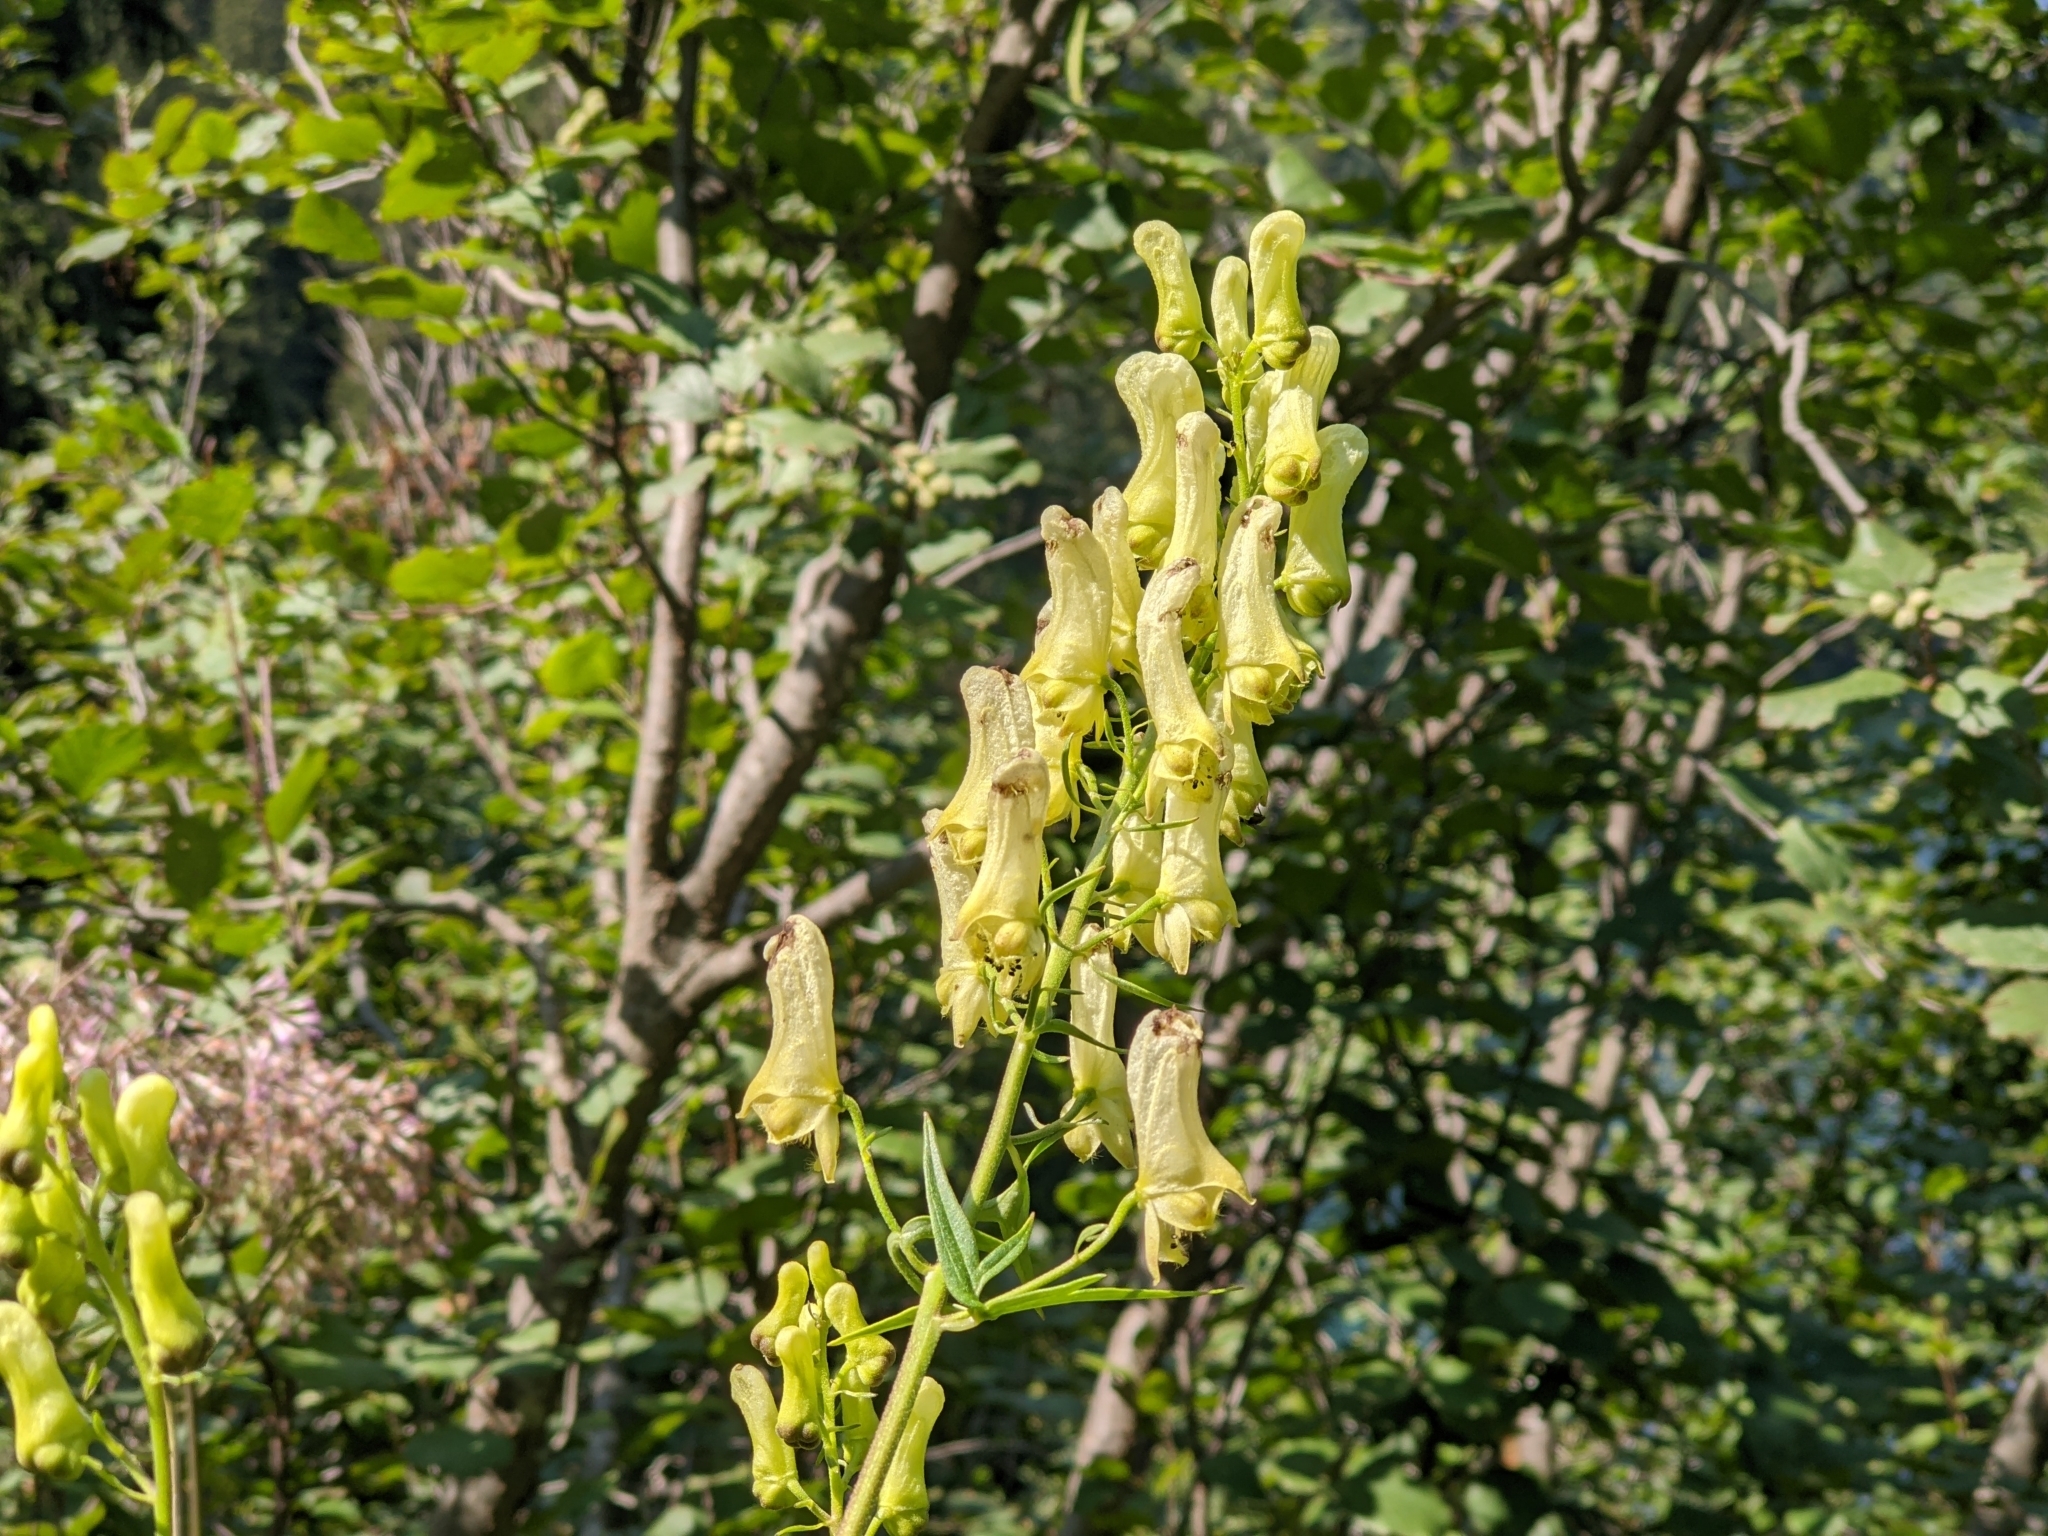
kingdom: Plantae
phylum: Tracheophyta
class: Magnoliopsida
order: Ranunculales
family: Ranunculaceae
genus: Aconitum
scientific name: Aconitum lycoctonum
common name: Wolf's-bane
